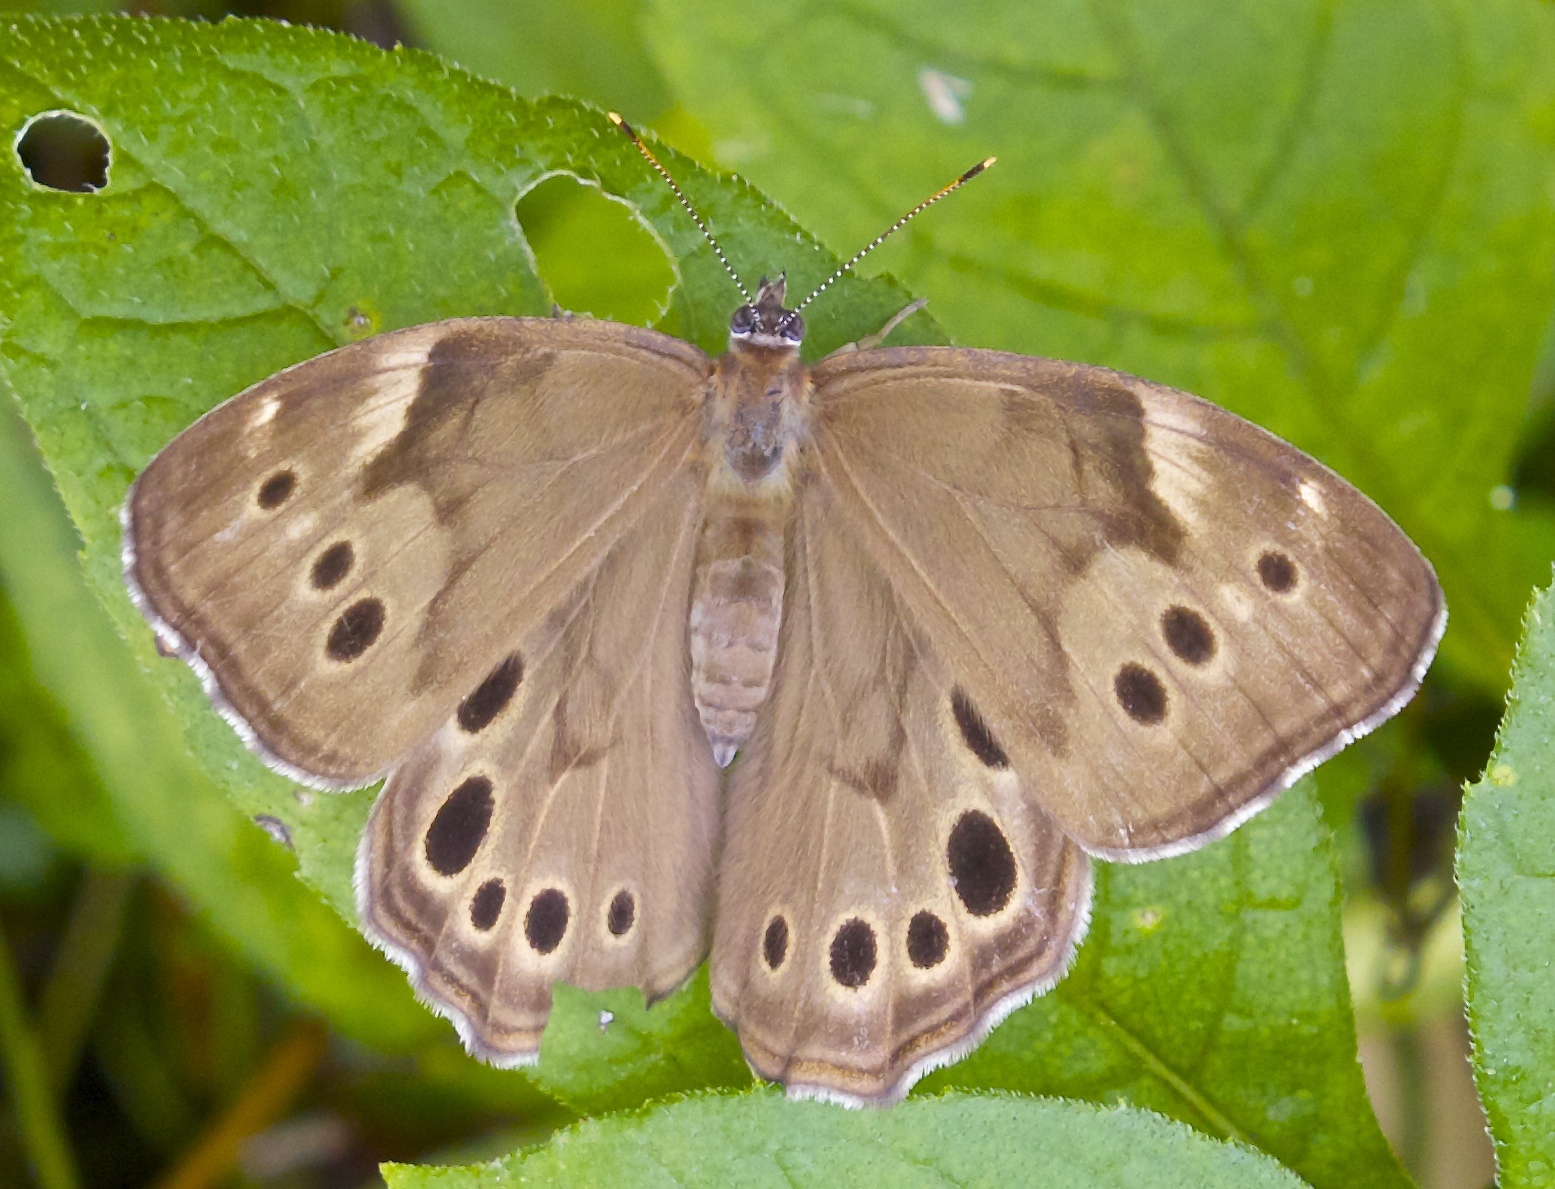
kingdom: Animalia
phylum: Arthropoda
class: Insecta
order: Lepidoptera
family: Nymphalidae
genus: Lethe
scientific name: Lethe anthedon
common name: Northern pearly-eye
